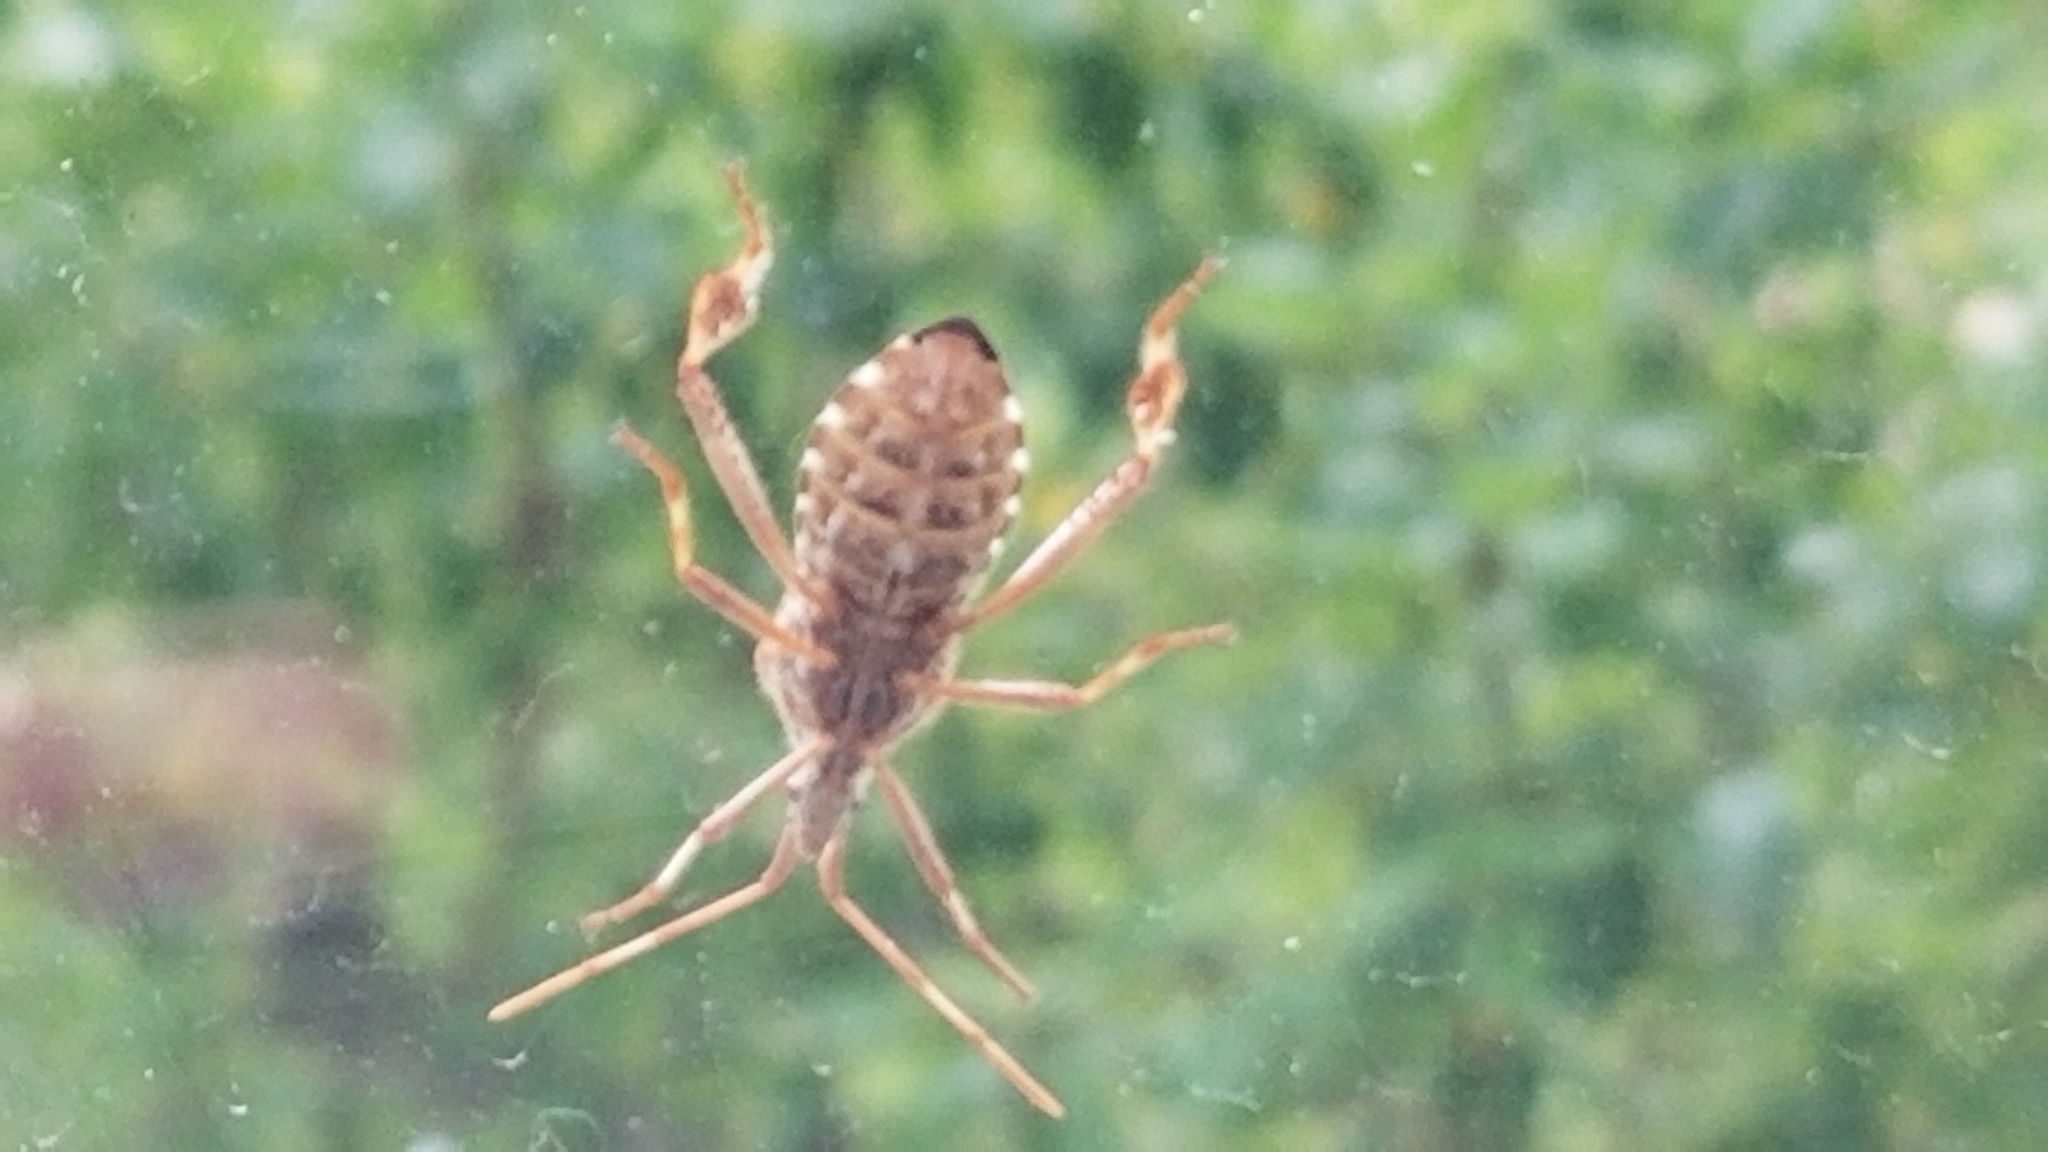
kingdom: Animalia
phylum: Arthropoda
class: Insecta
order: Hemiptera
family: Coreidae
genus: Leptoglossus
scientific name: Leptoglossus occidentalis
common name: Western conifer-seed bug
